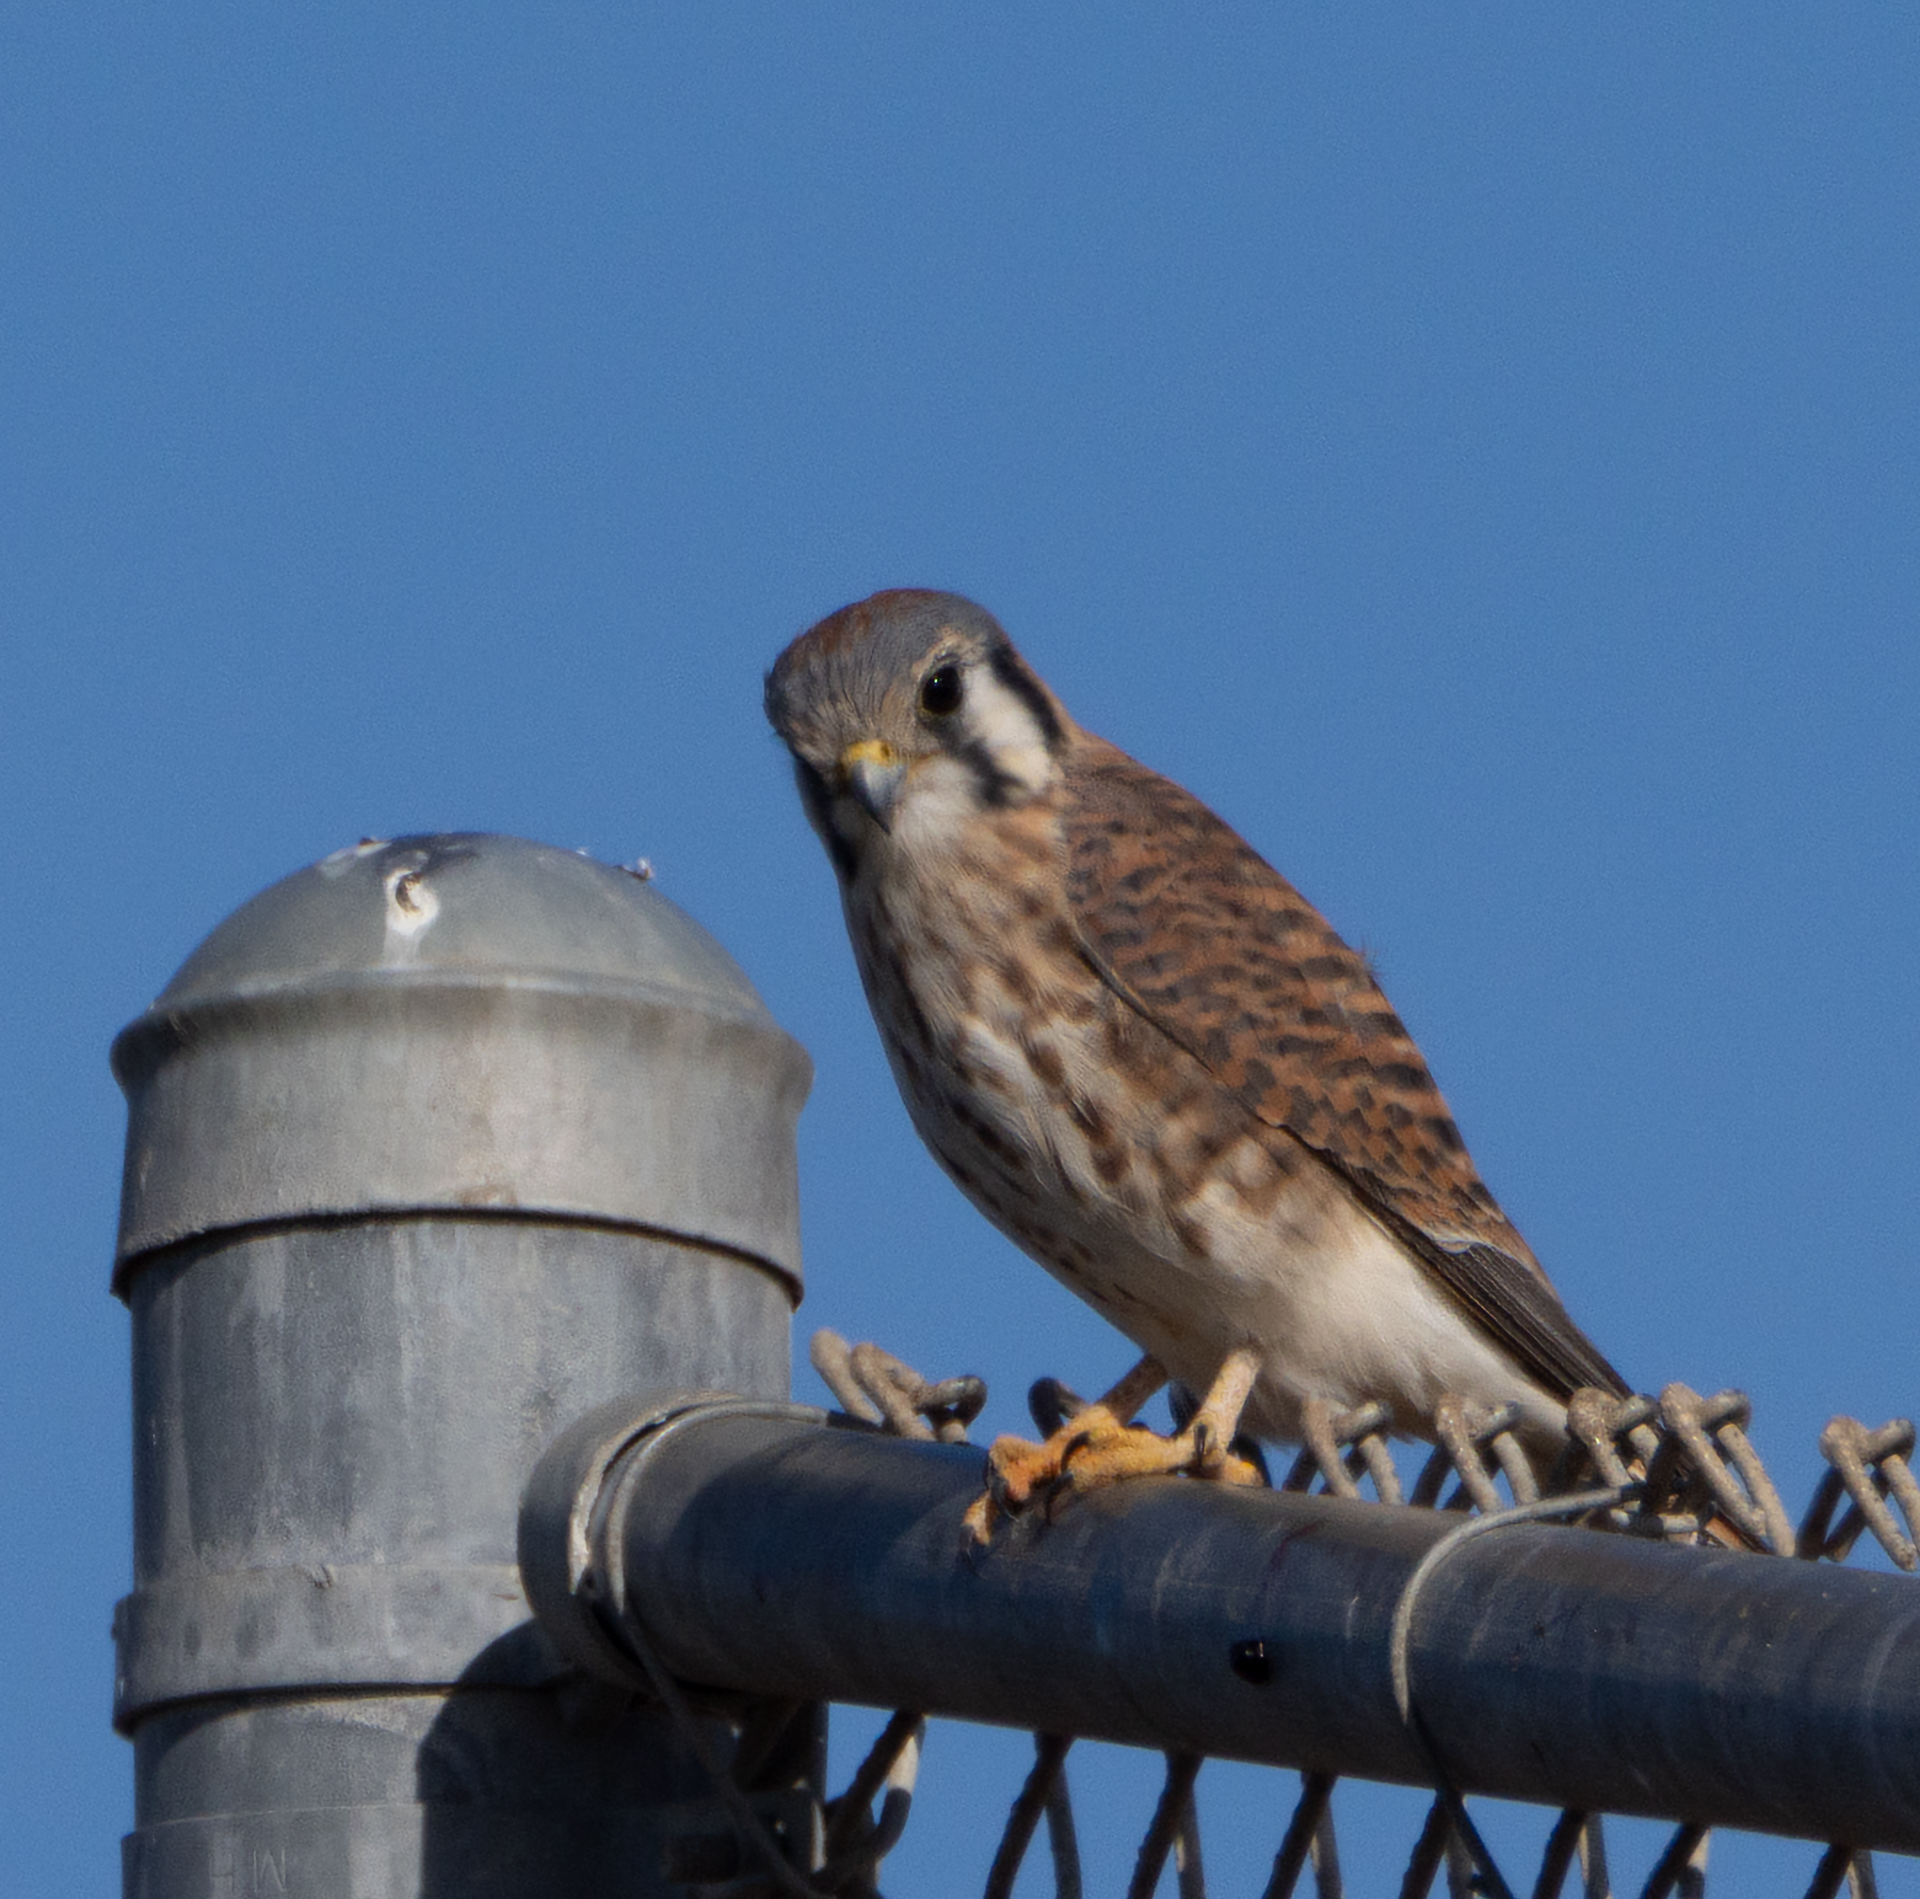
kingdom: Animalia
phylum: Chordata
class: Aves
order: Falconiformes
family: Falconidae
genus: Falco
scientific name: Falco sparverius
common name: American kestrel
